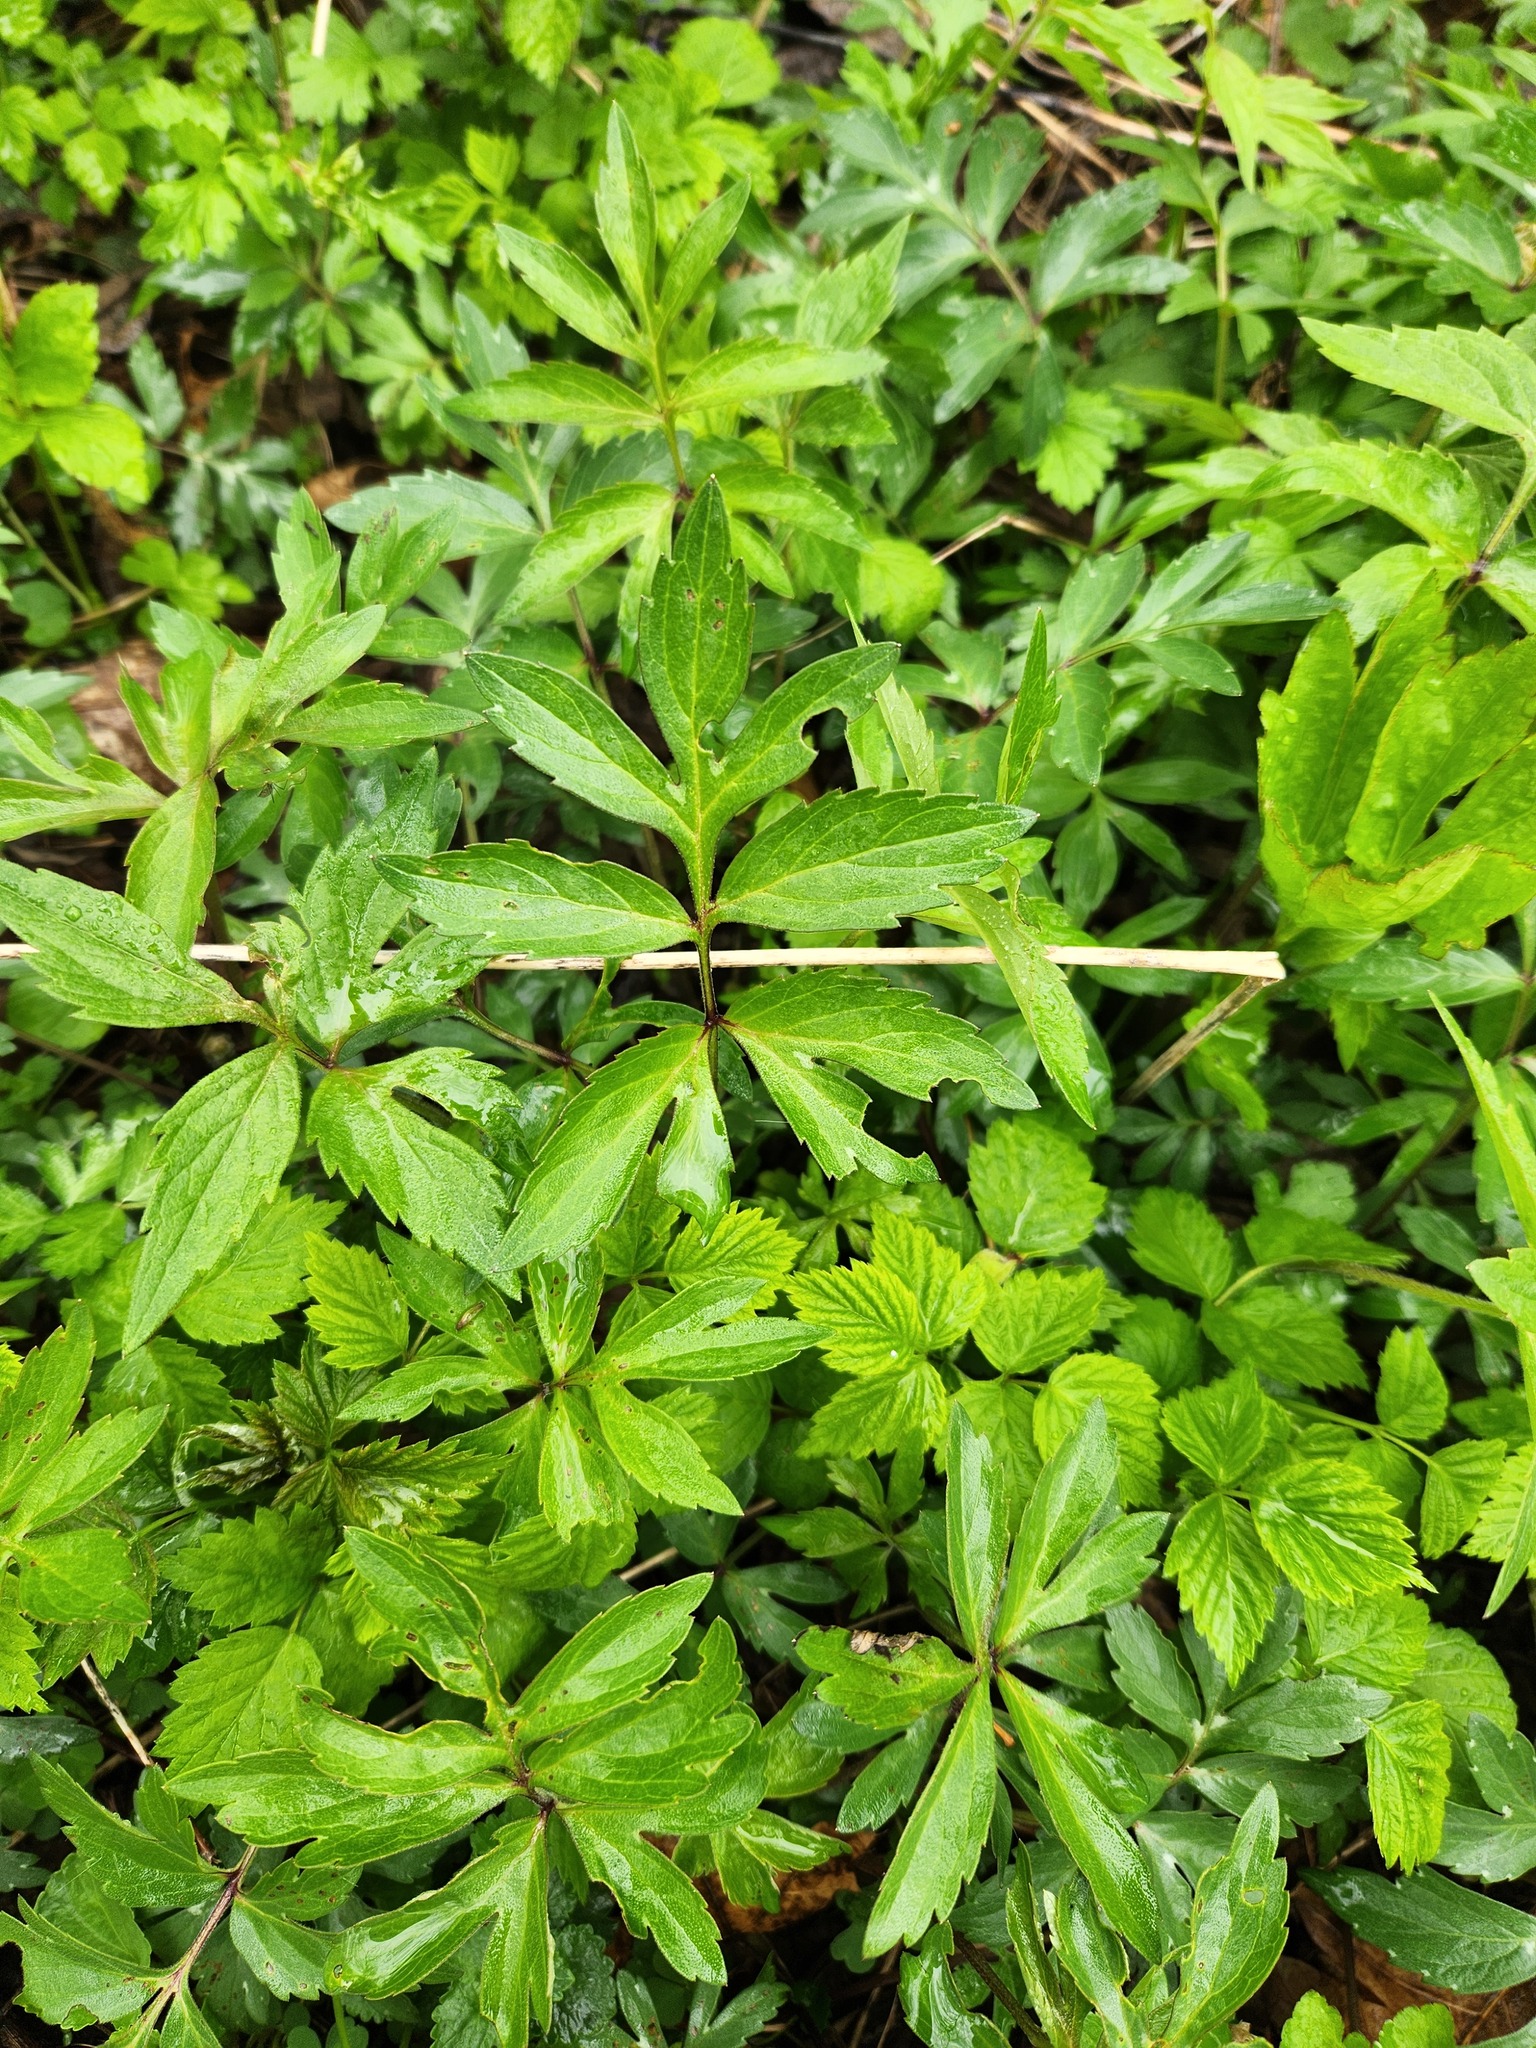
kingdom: Plantae
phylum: Tracheophyta
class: Magnoliopsida
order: Boraginales
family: Hydrophyllaceae
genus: Hydrophyllum
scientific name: Hydrophyllum virginianum
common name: Virginia waterleaf
